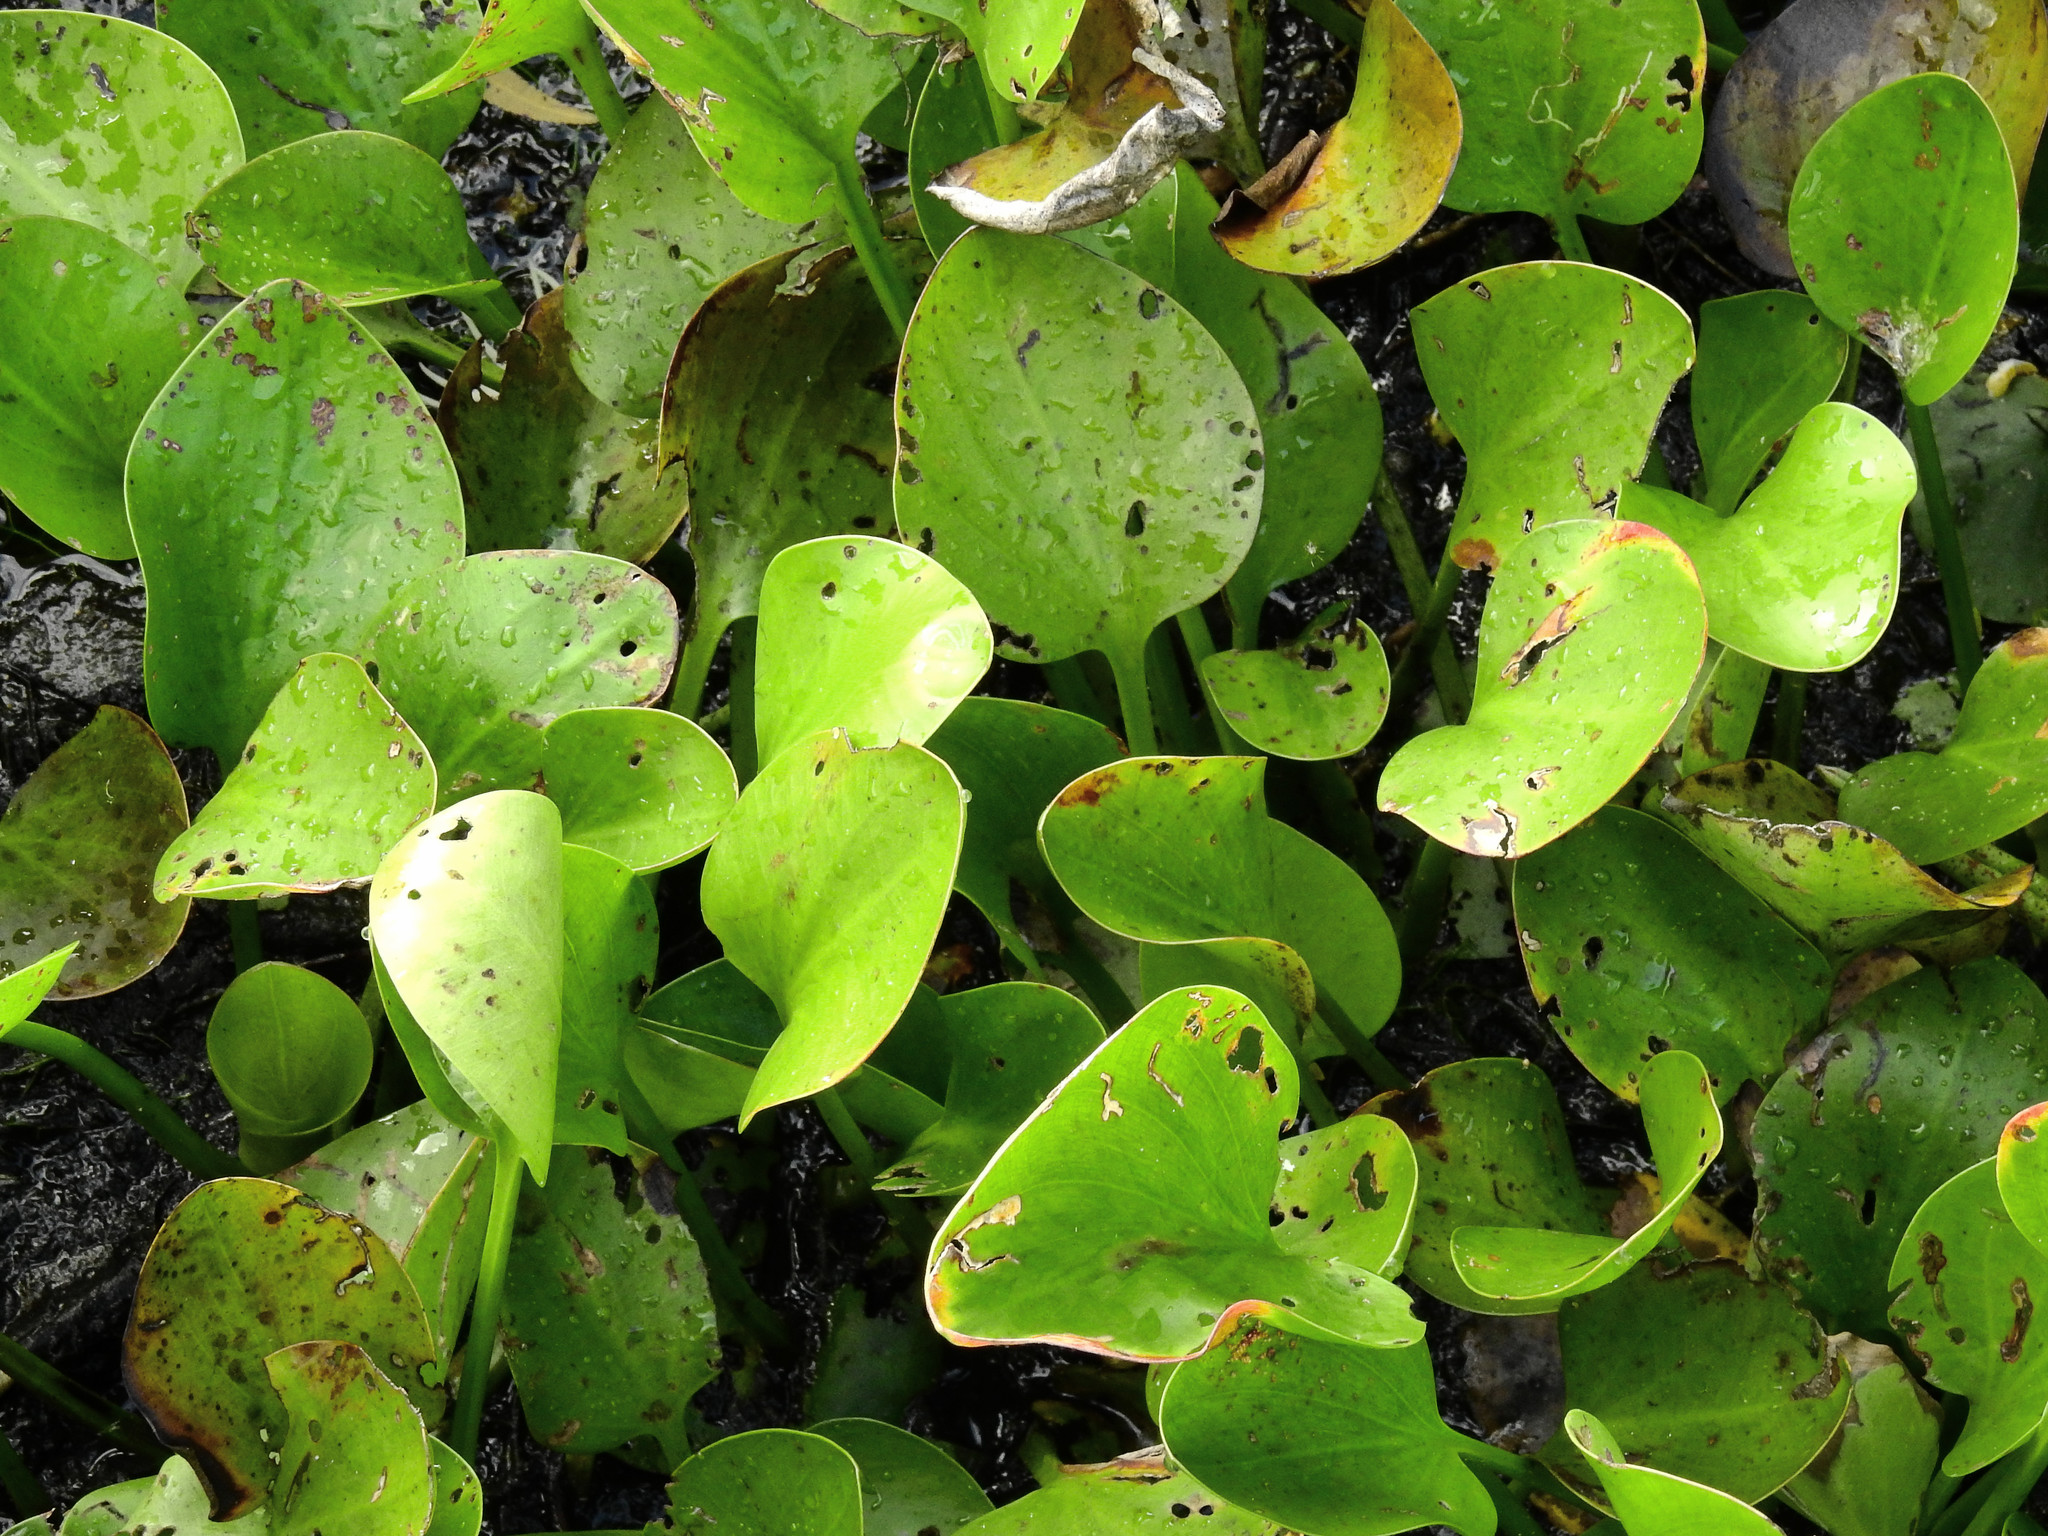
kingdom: Plantae
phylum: Tracheophyta
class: Liliopsida
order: Alismatales
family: Hydrocharitaceae
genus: Hydrocharis
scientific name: Hydrocharis spongia
